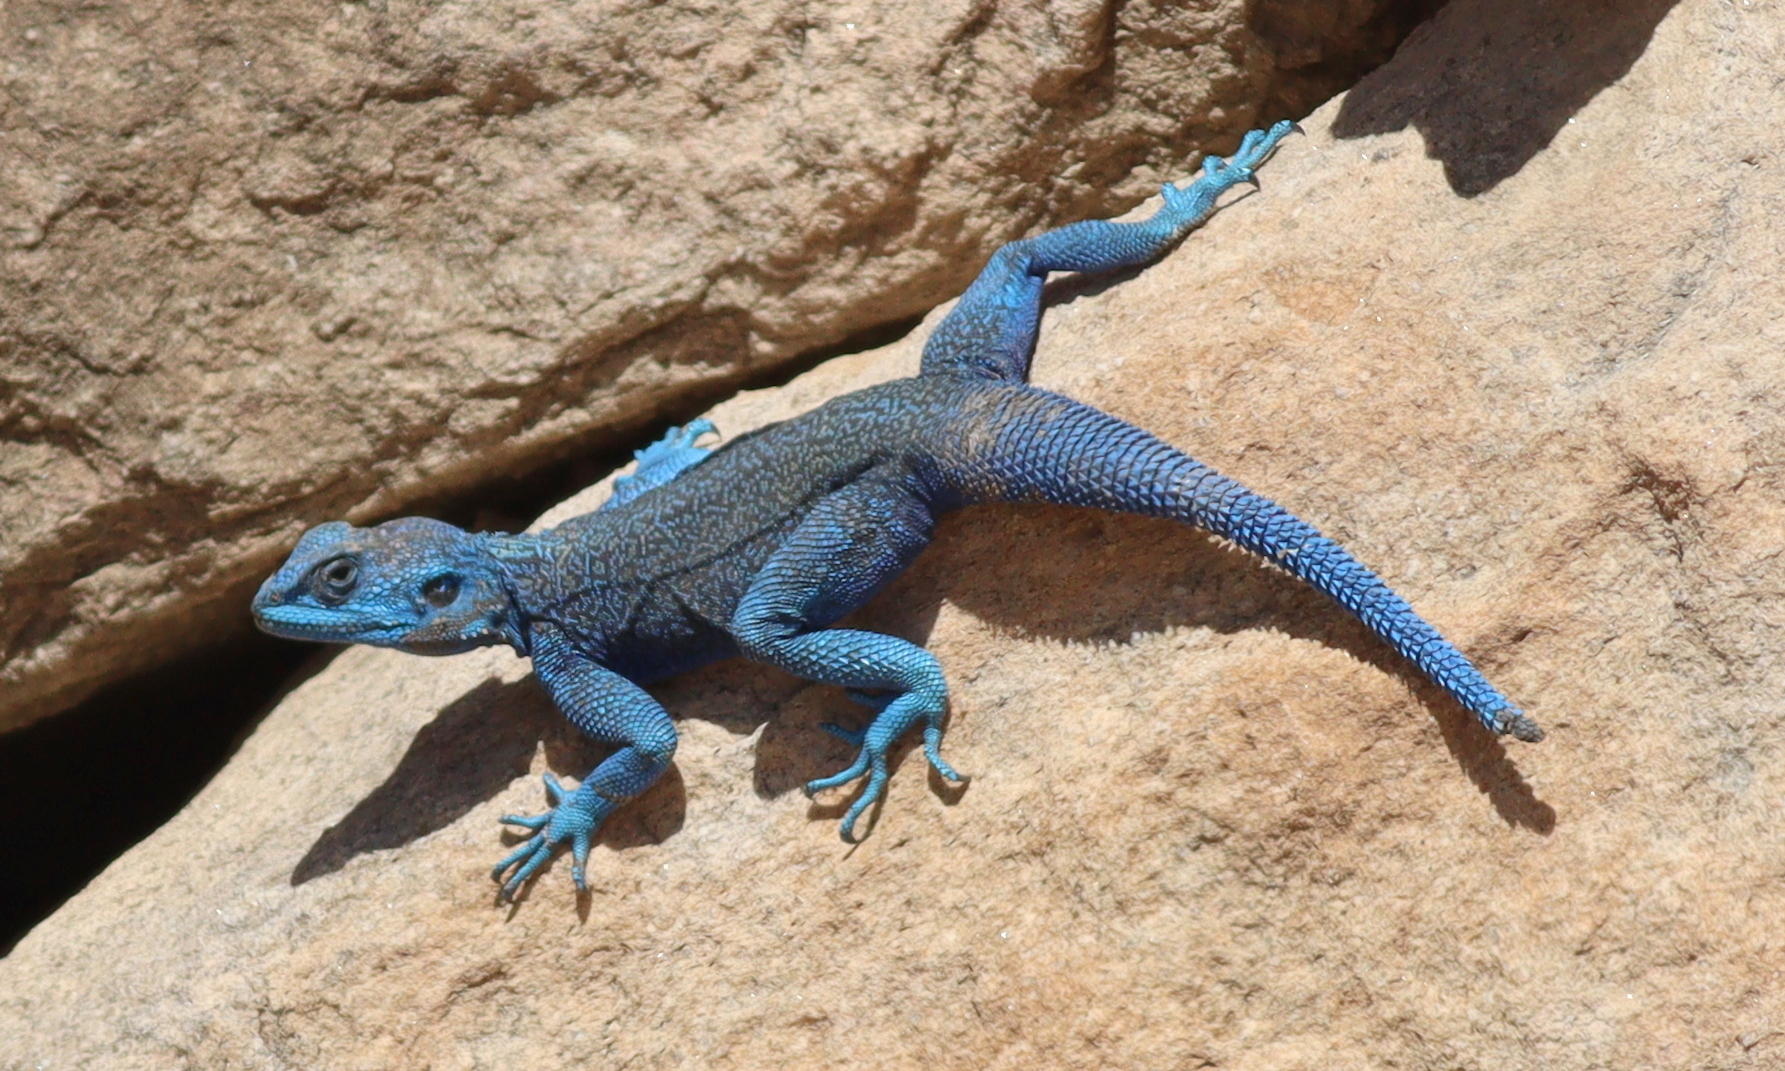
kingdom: Animalia
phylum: Chordata
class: Squamata
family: Agamidae
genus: Acanthocercus
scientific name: Acanthocercus yemensis
